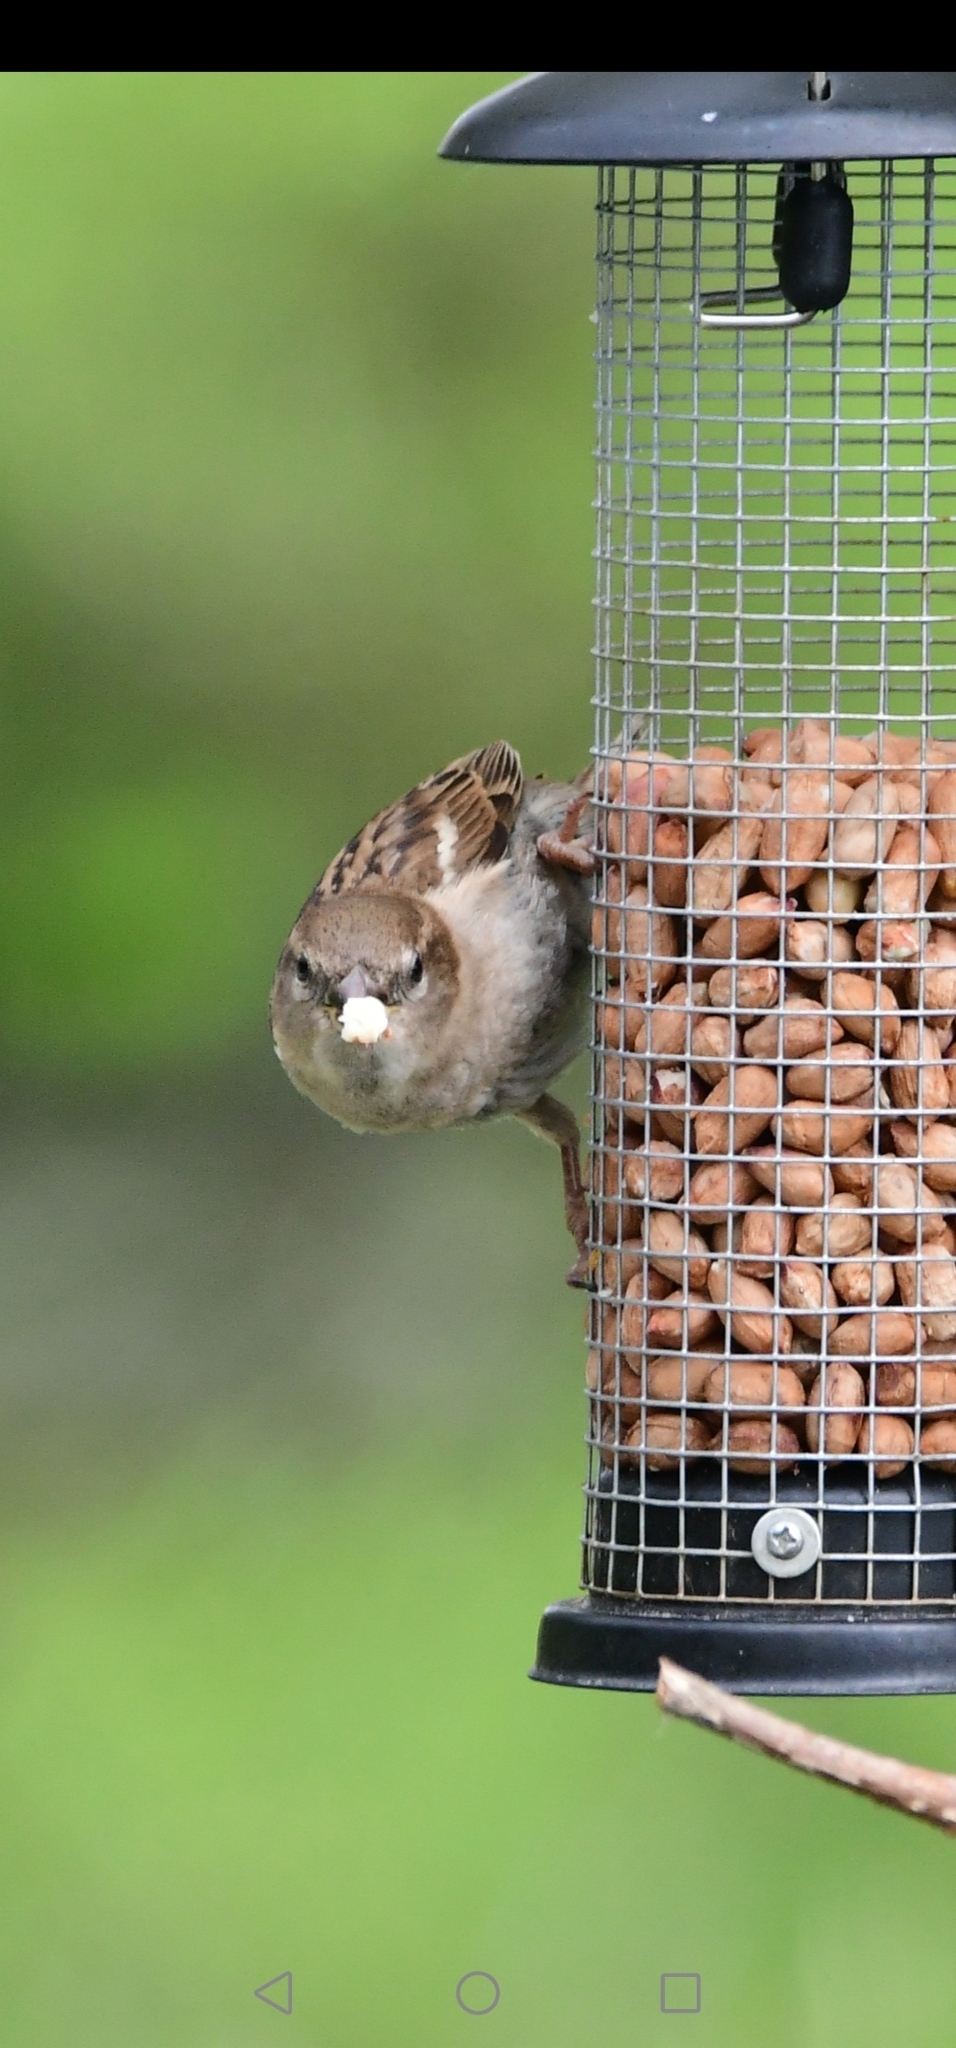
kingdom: Animalia
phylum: Chordata
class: Aves
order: Passeriformes
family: Passeridae
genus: Passer
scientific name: Passer domesticus
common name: House sparrow
